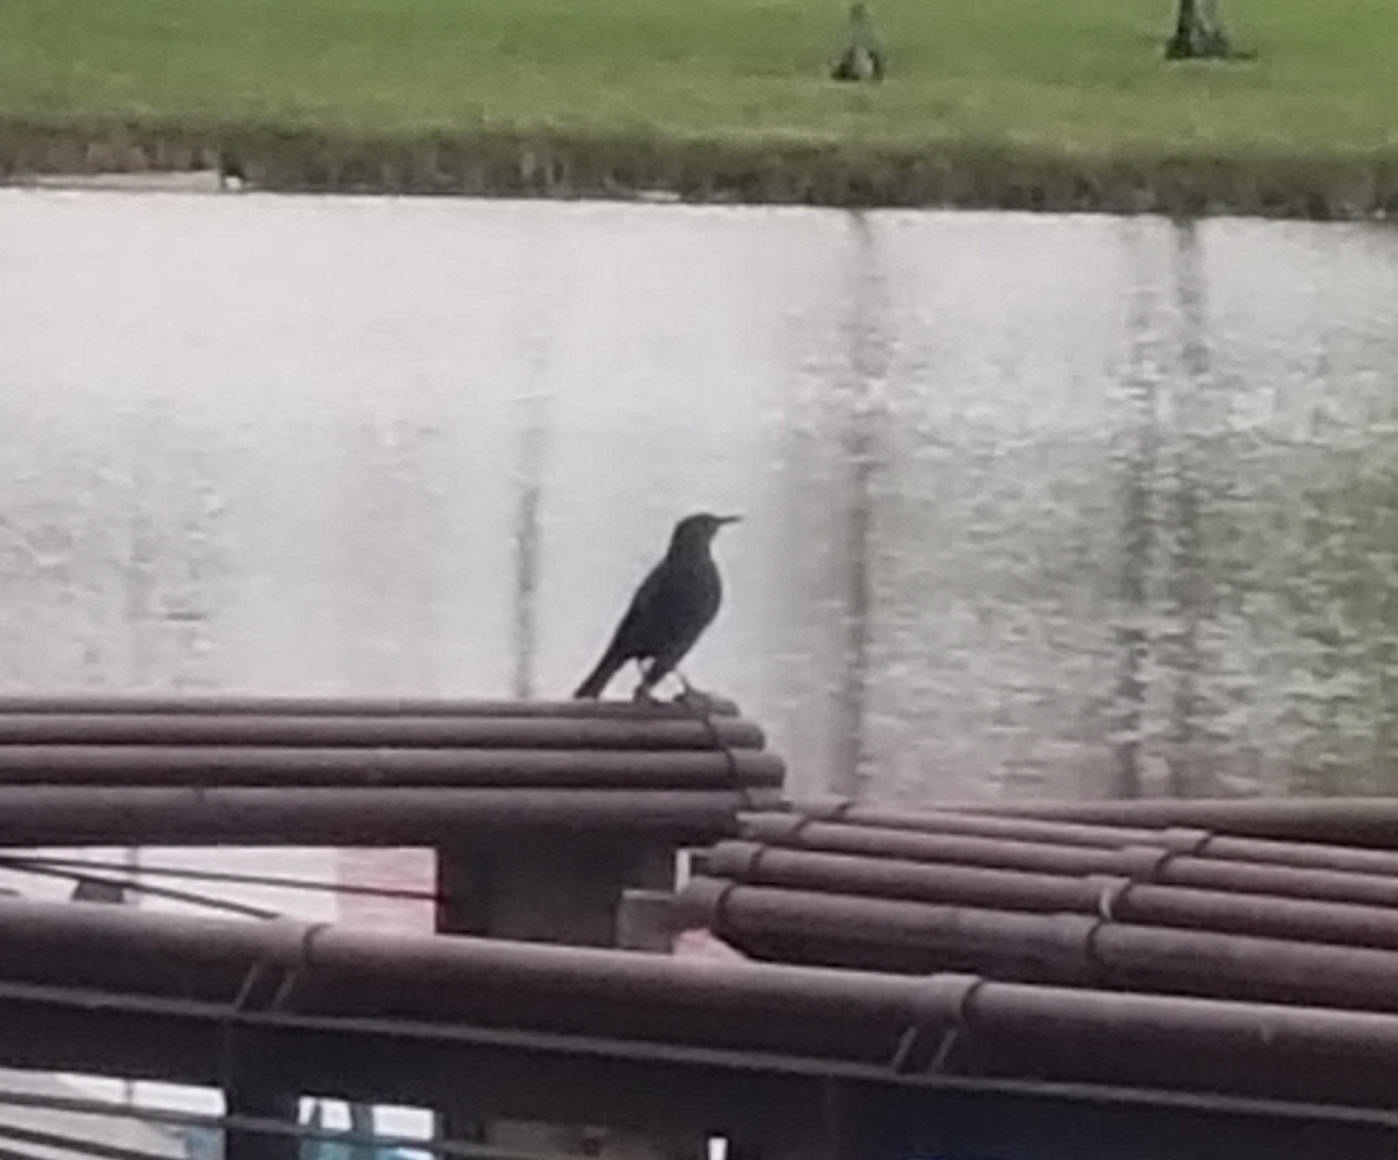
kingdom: Animalia
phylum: Chordata
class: Aves
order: Passeriformes
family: Icteridae
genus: Quiscalus
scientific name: Quiscalus major
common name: Boat-tailed grackle
